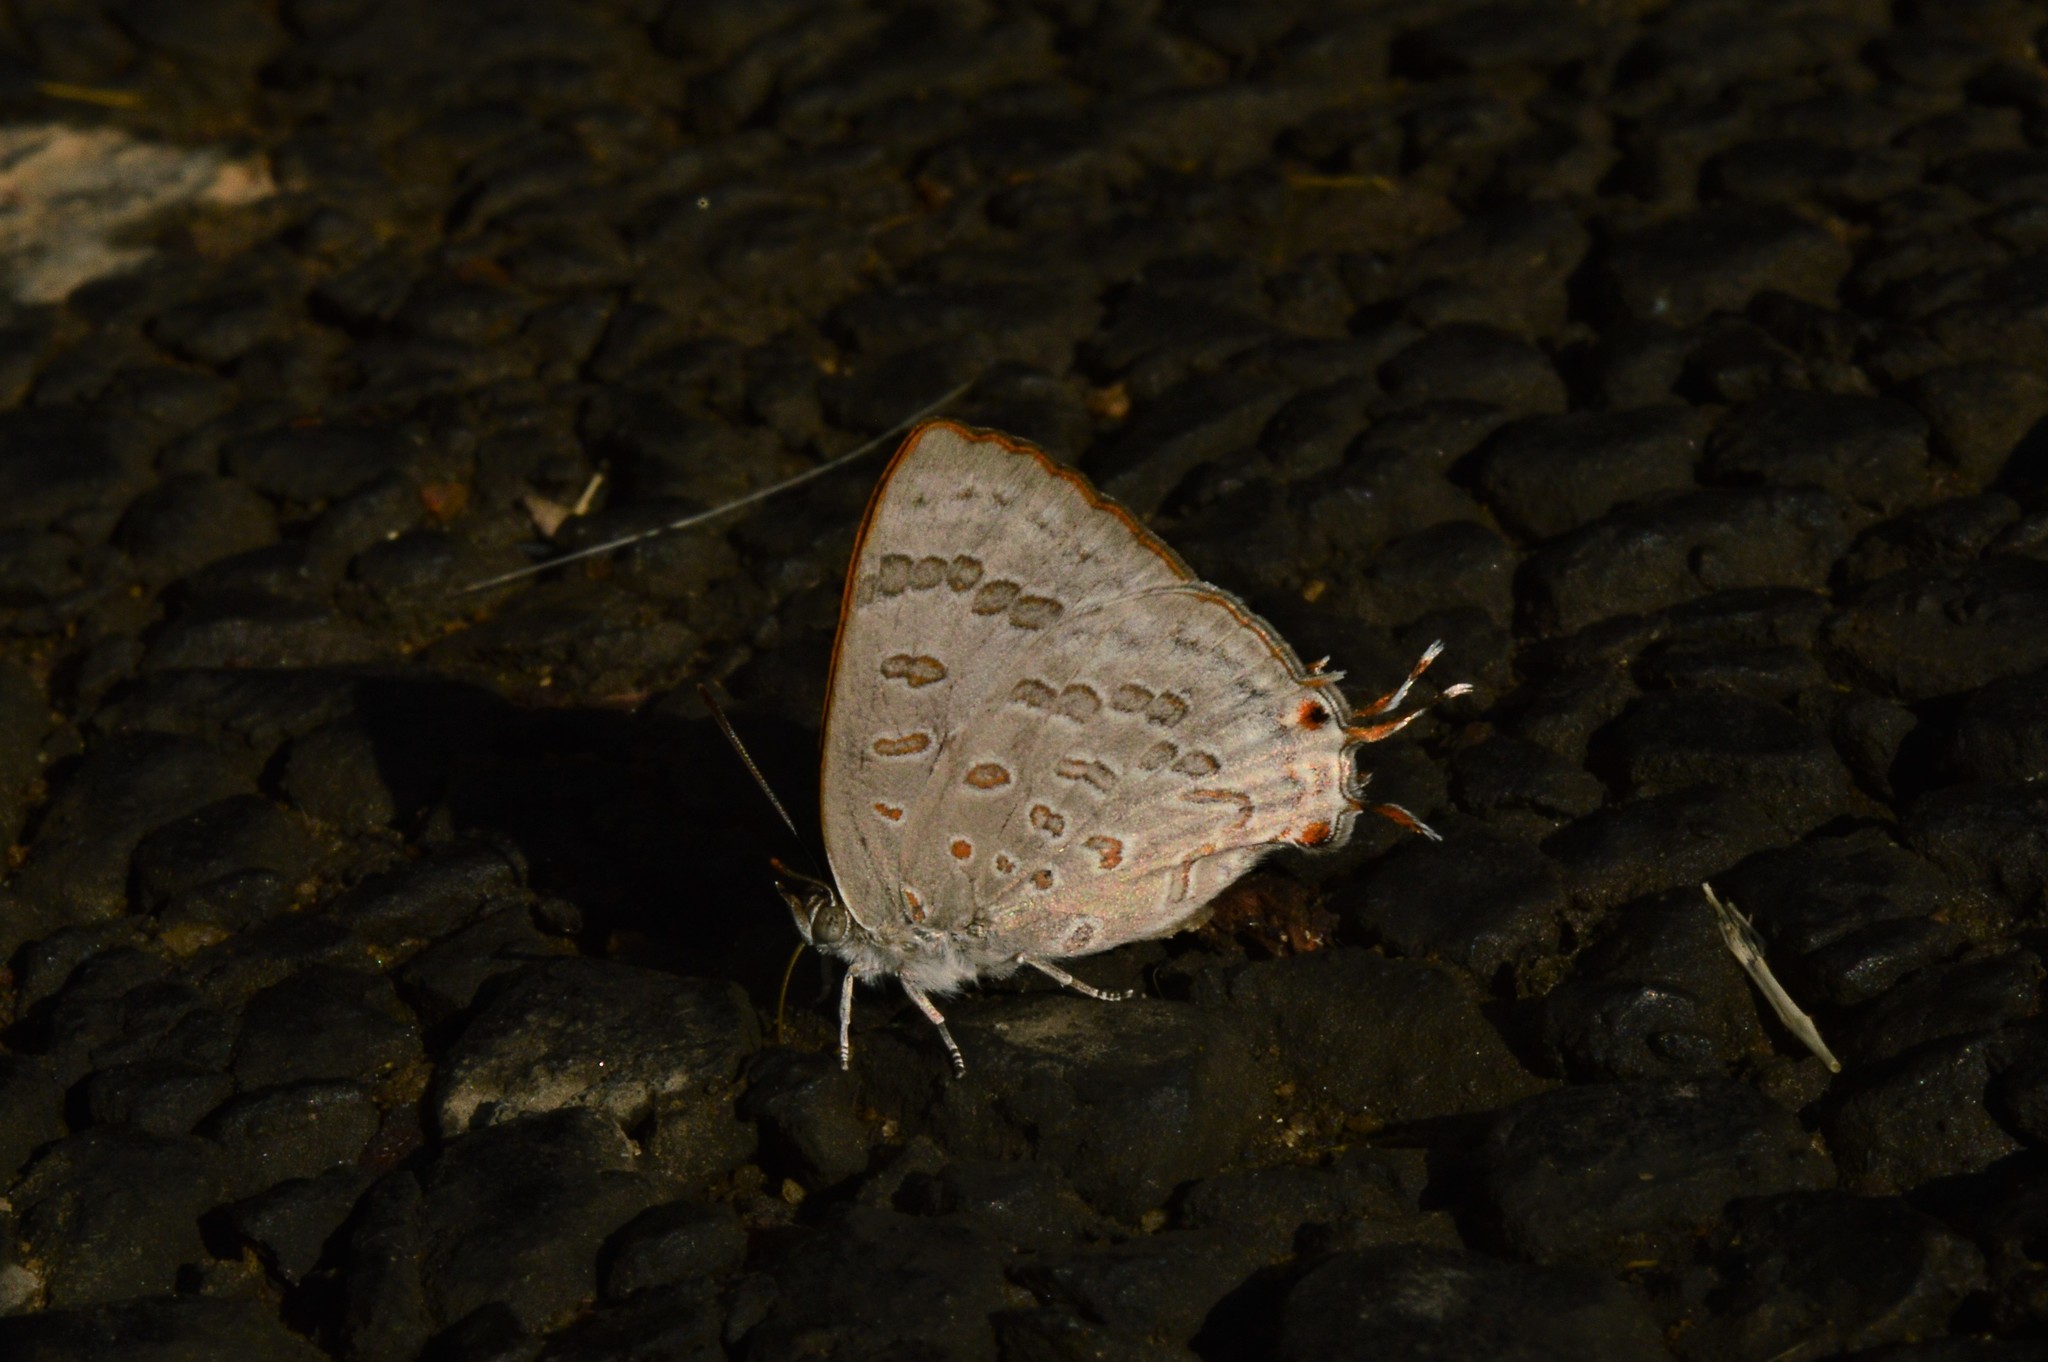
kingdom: Animalia
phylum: Arthropoda
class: Insecta
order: Lepidoptera
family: Lycaenidae
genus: Zesius
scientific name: Zesius chrysomallus
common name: Redspot
